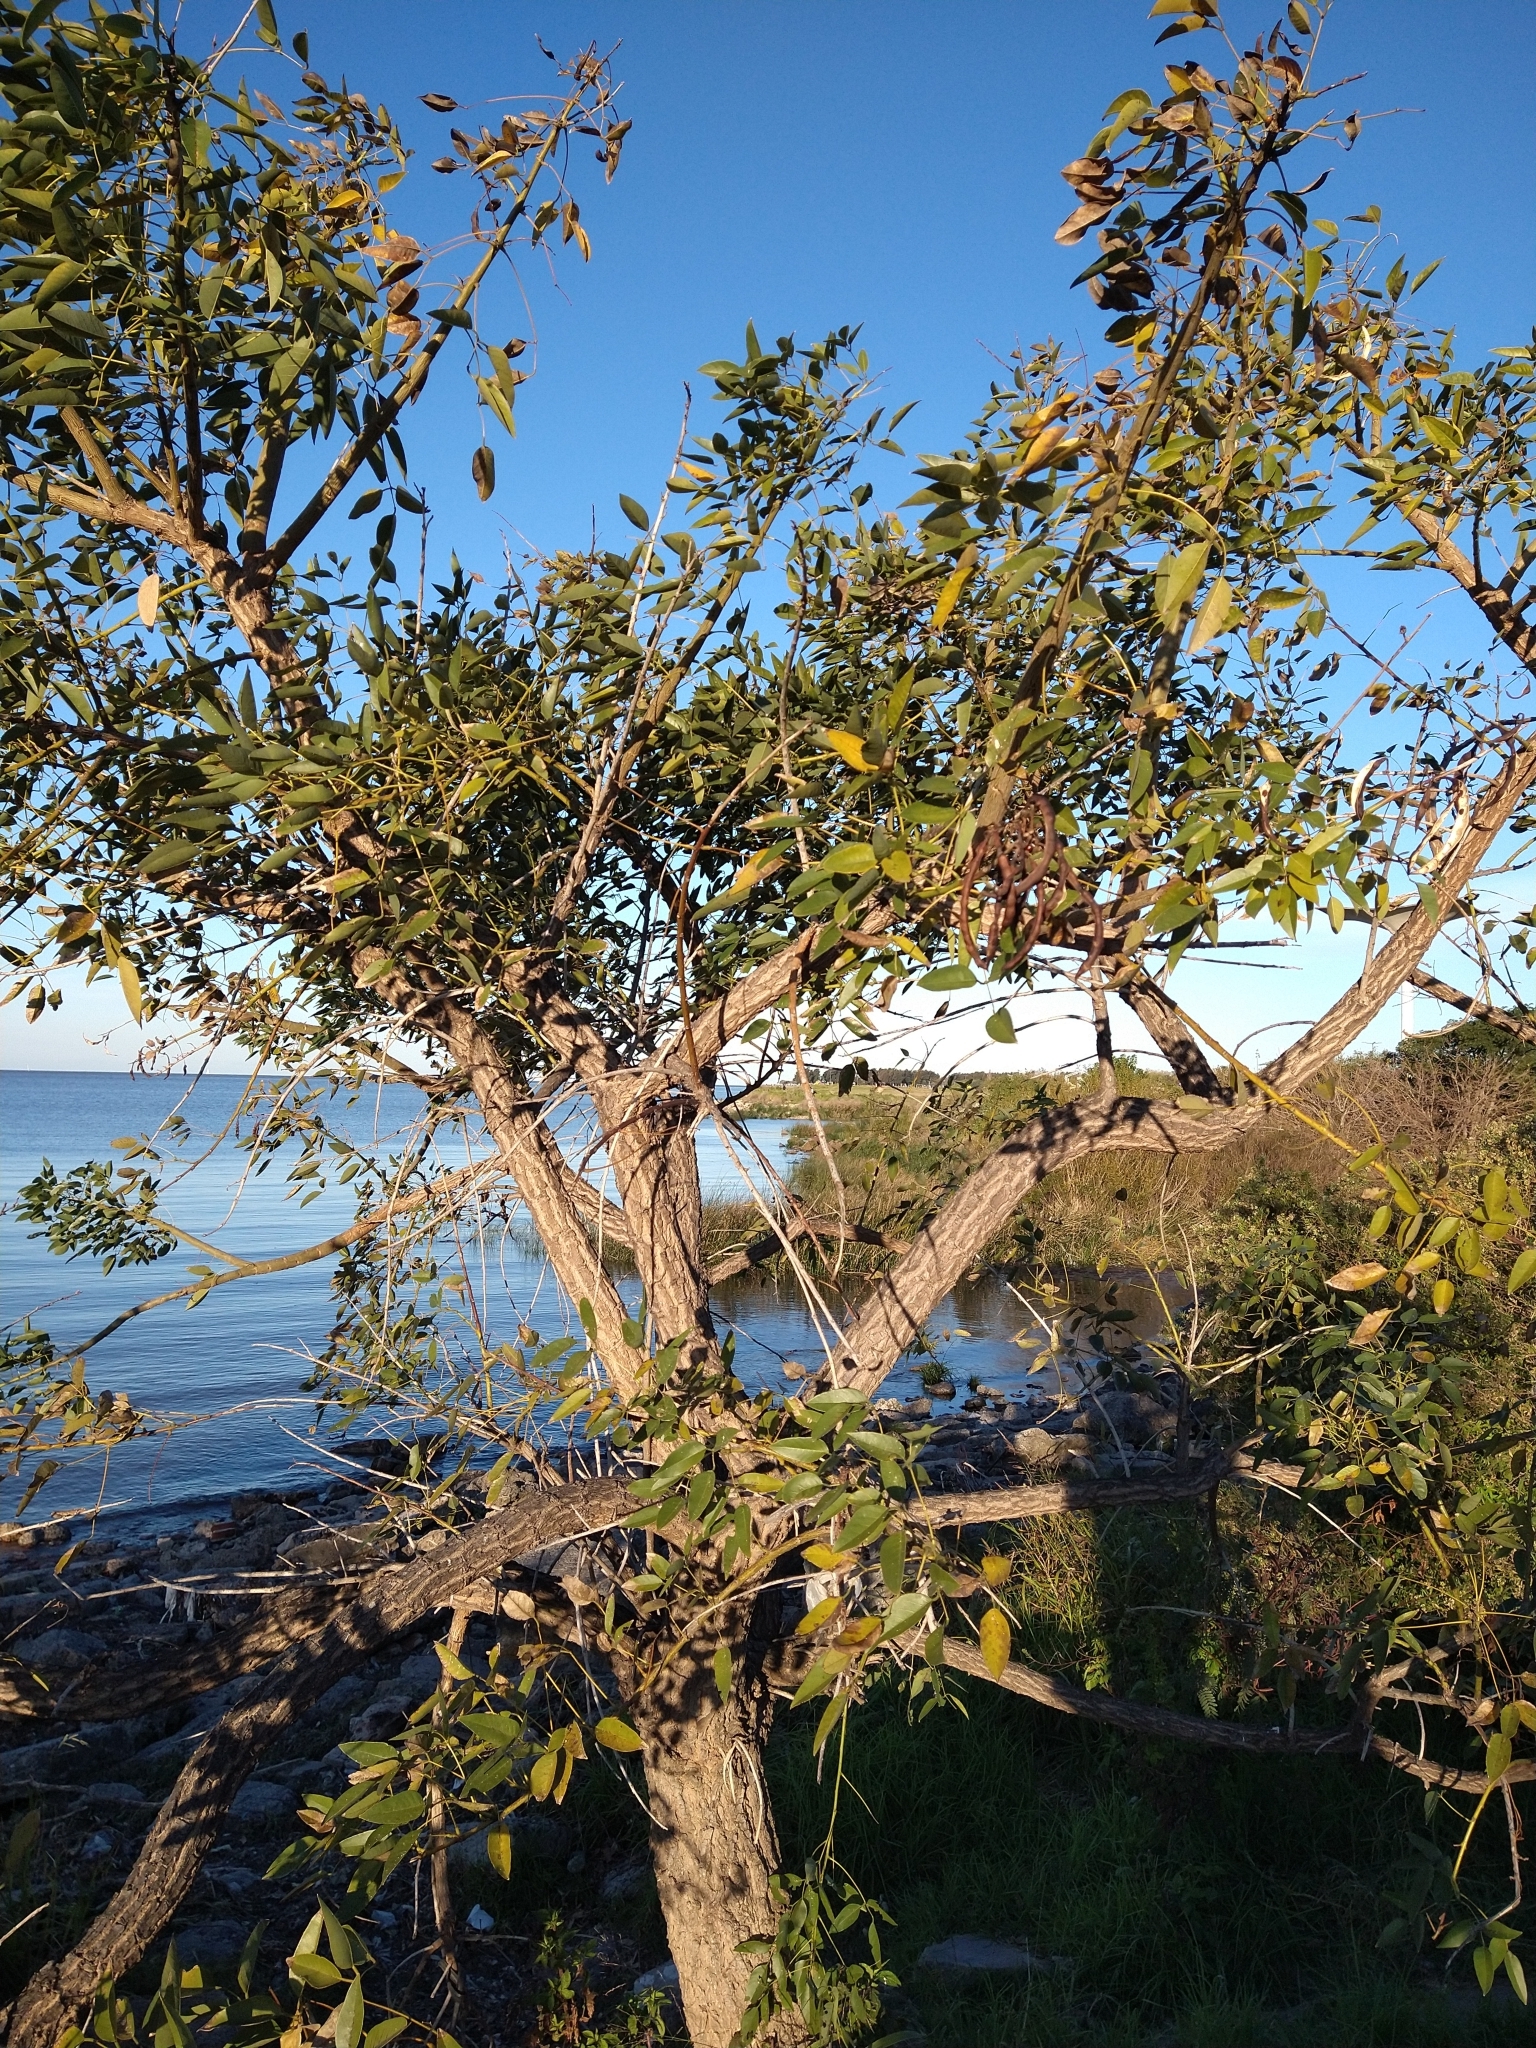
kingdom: Plantae
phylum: Tracheophyta
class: Magnoliopsida
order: Fabales
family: Fabaceae
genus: Erythrina
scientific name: Erythrina crista-galli
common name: Cockspur coral tree
